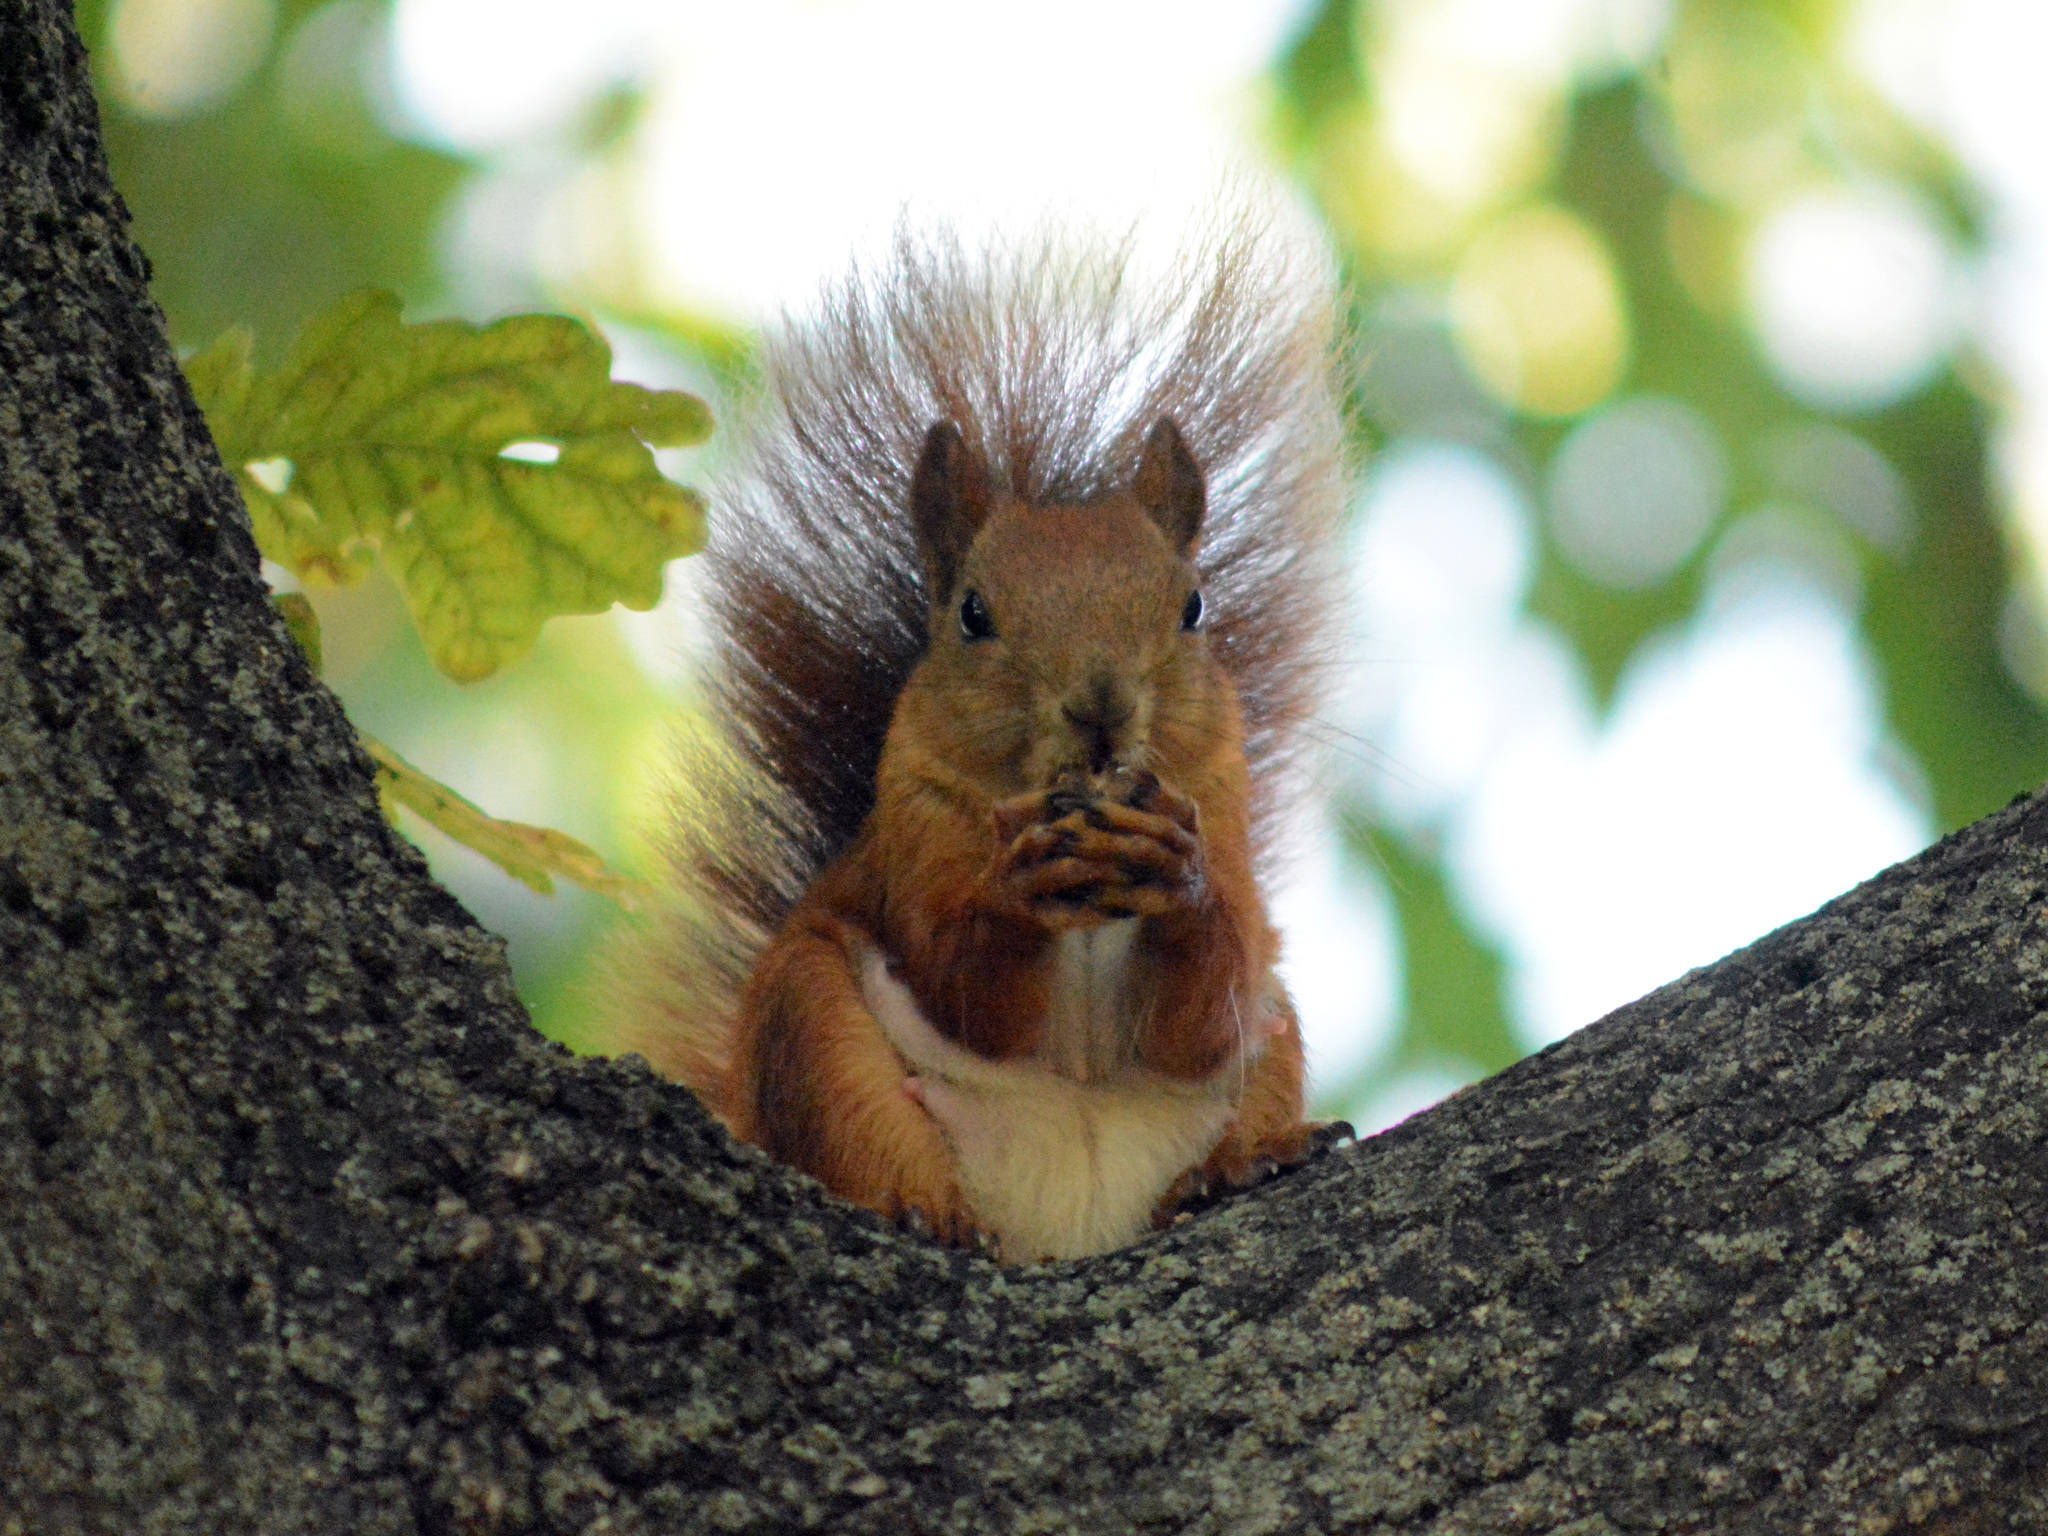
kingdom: Animalia
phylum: Chordata
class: Mammalia
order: Rodentia
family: Sciuridae
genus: Sciurus
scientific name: Sciurus vulgaris
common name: Eurasian red squirrel
